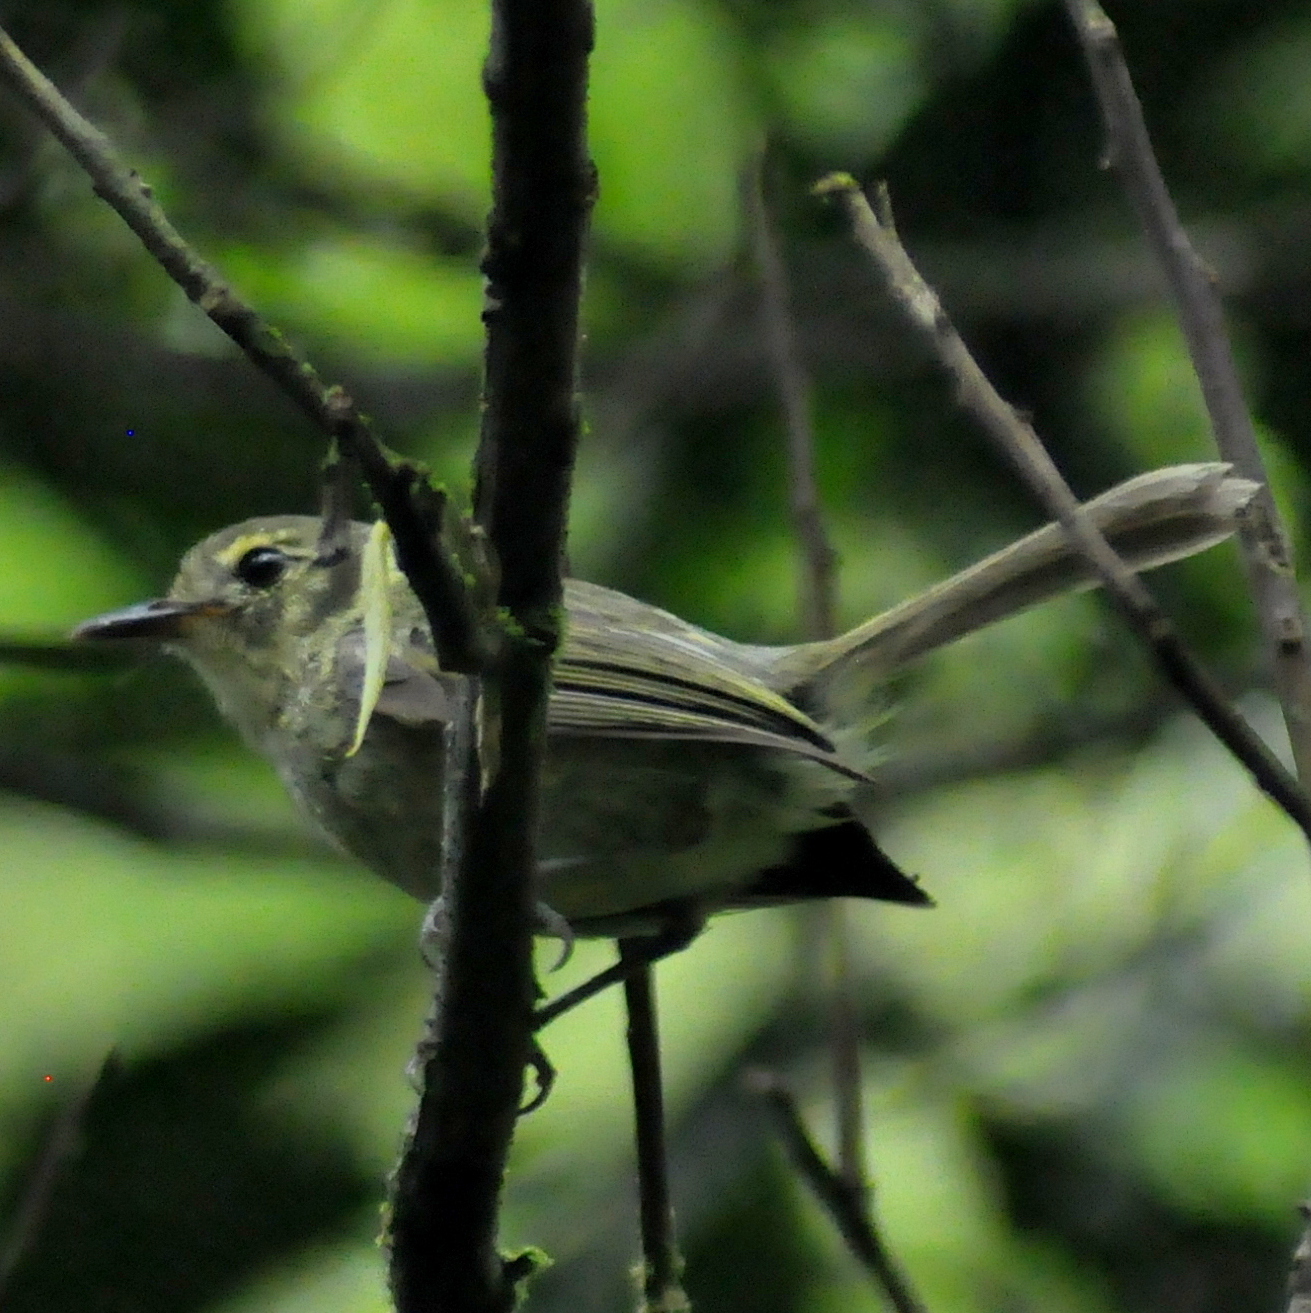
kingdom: Animalia
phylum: Chordata
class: Aves
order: Passeriformes
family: Tyrannidae
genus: Phylloscartes
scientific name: Phylloscartes oustaleti
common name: Oustalet's tyrannulet
